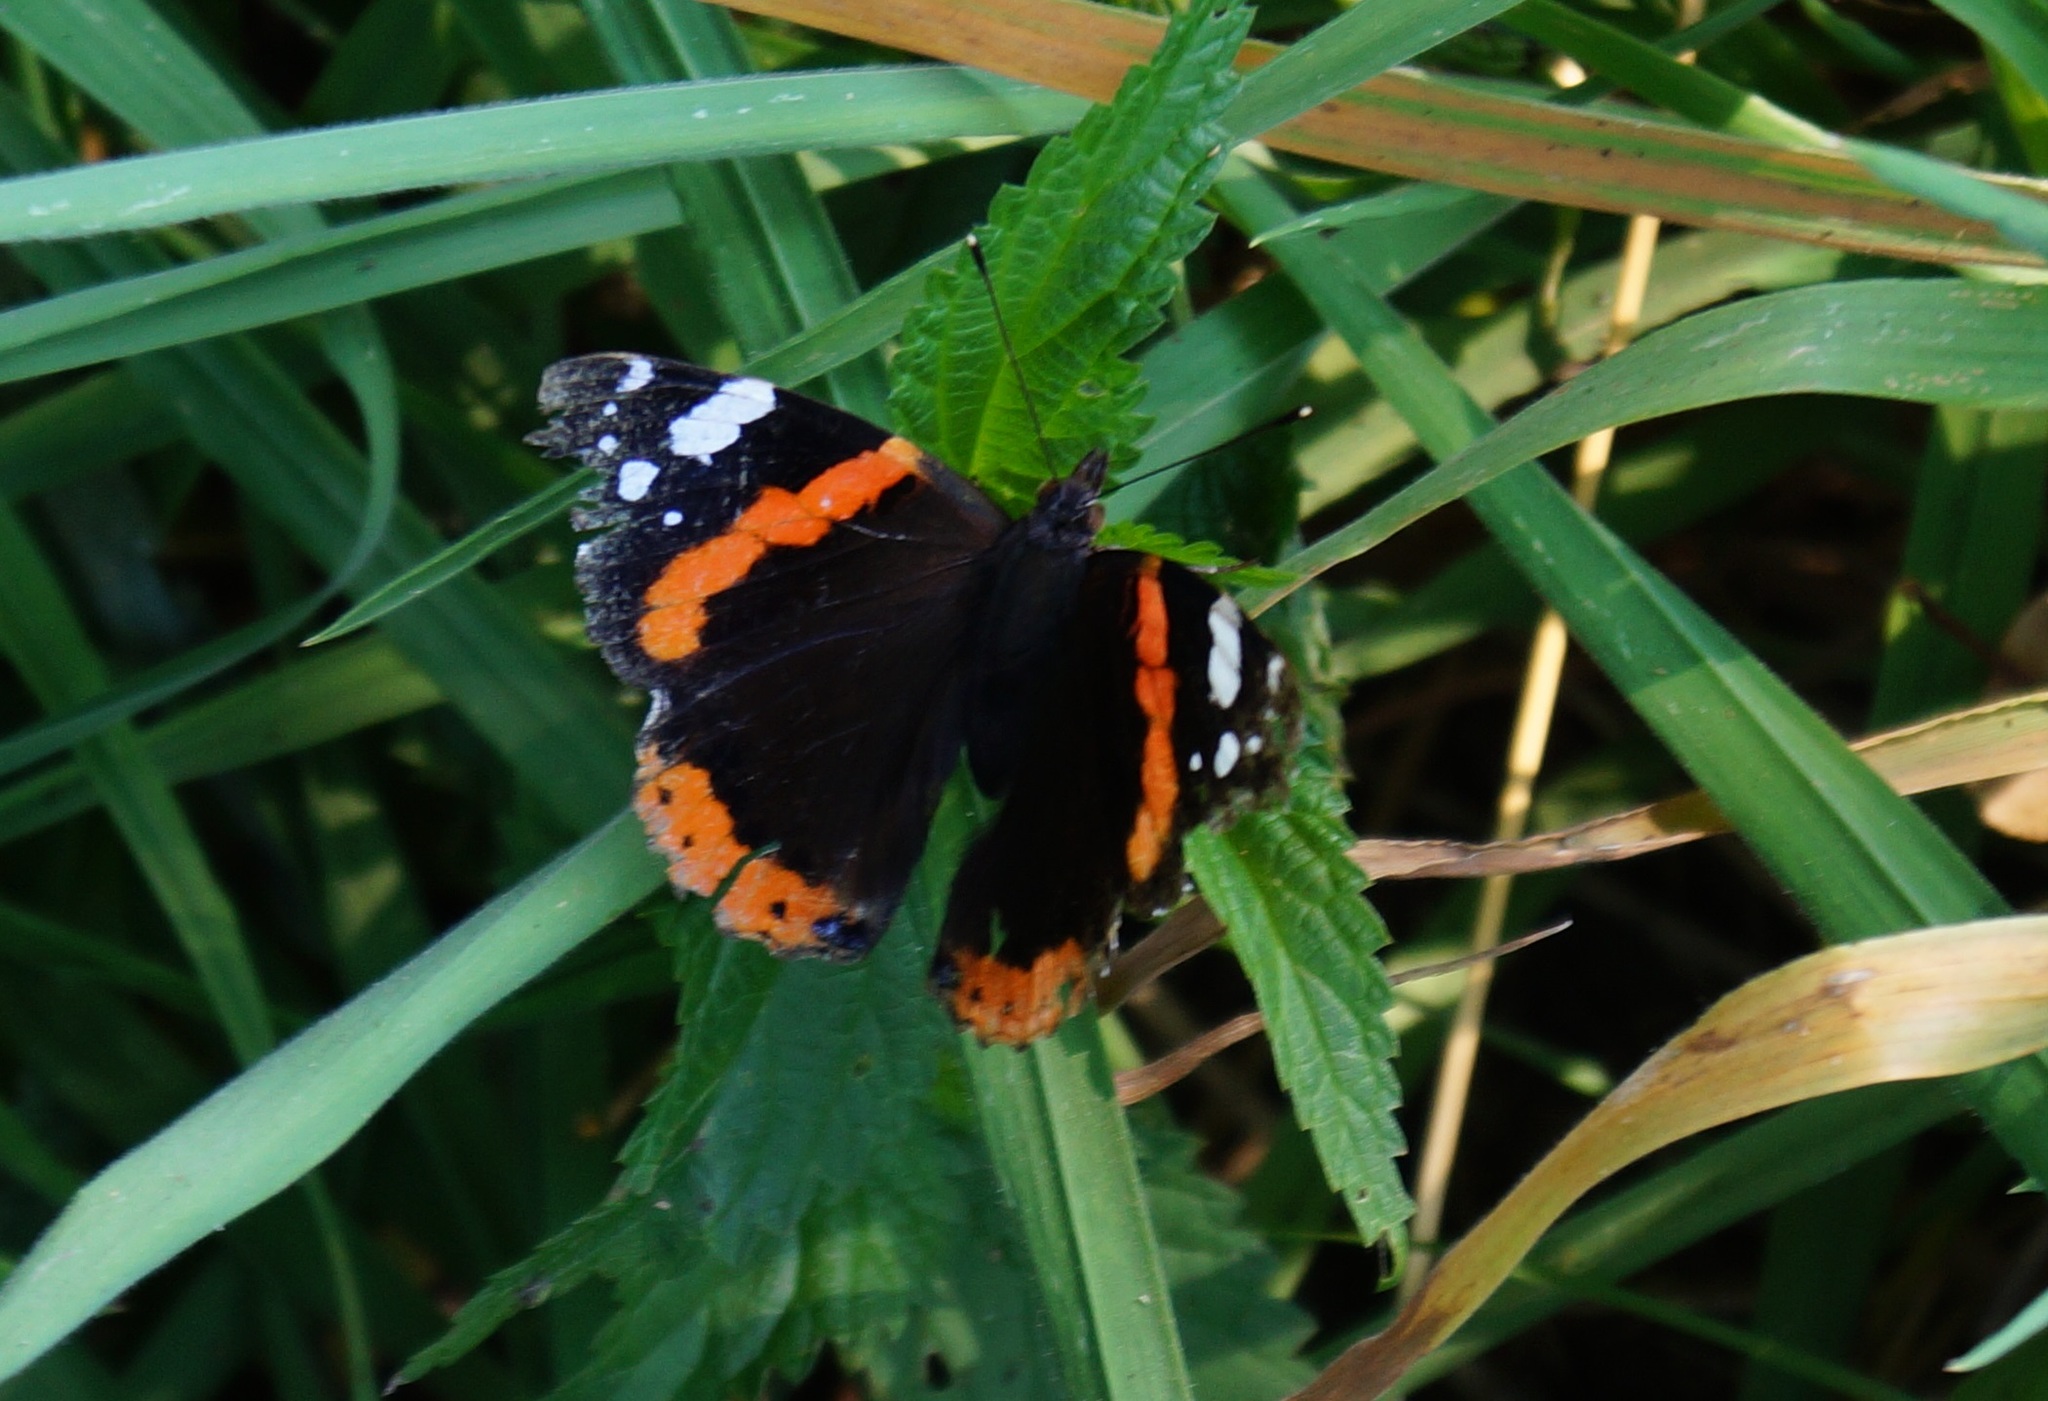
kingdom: Animalia
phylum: Arthropoda
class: Insecta
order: Lepidoptera
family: Nymphalidae
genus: Vanessa
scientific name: Vanessa atalanta
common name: Red admiral
